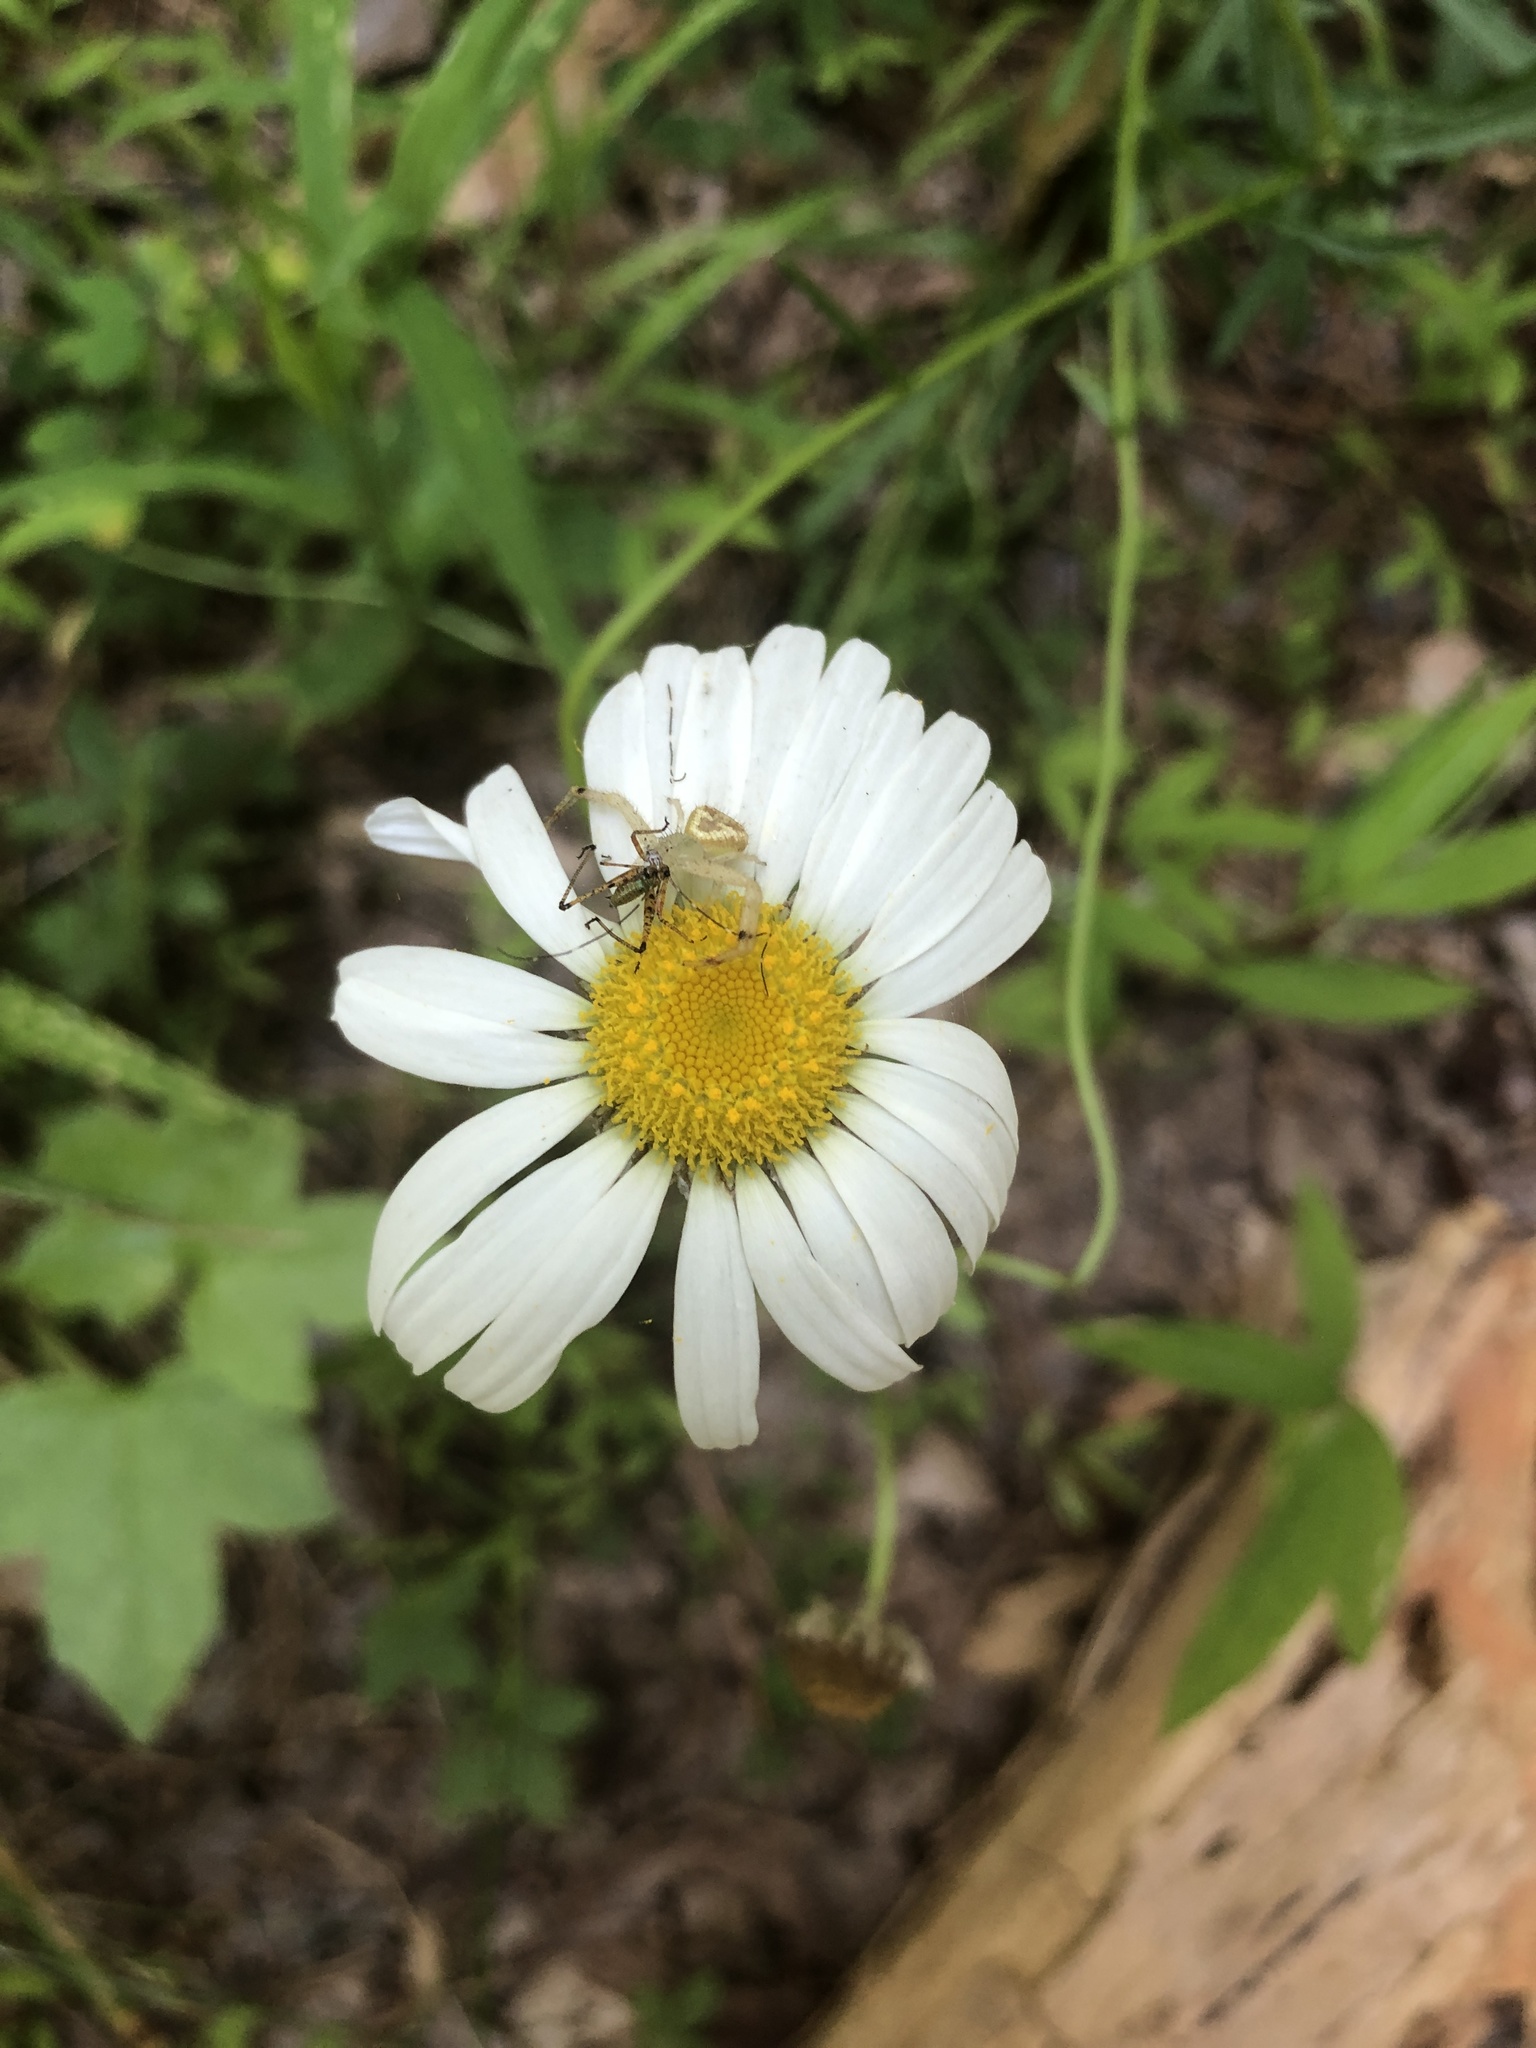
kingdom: Plantae
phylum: Tracheophyta
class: Magnoliopsida
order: Asterales
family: Asteraceae
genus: Leucanthemum
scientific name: Leucanthemum vulgare
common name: Oxeye daisy
